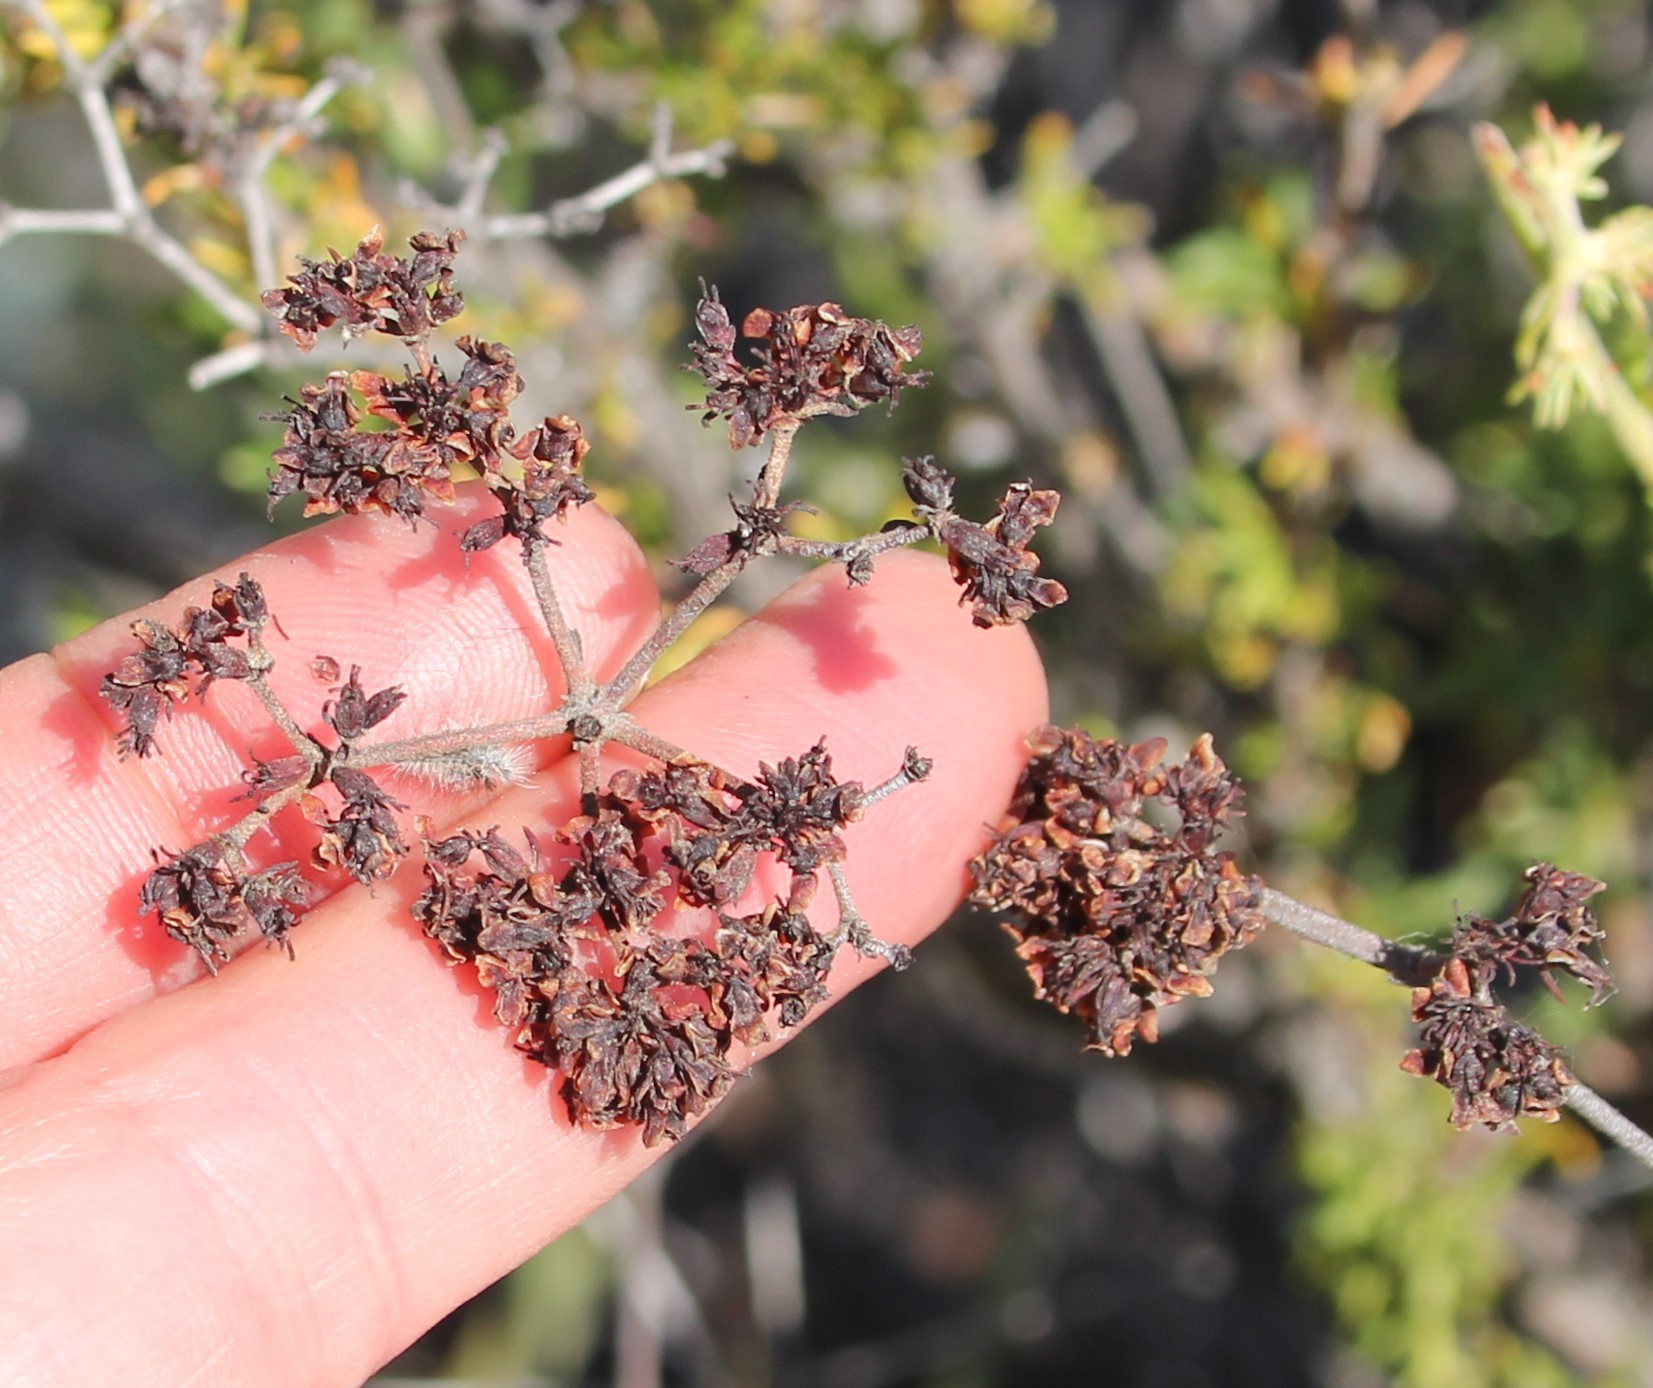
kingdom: Plantae
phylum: Tracheophyta
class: Magnoliopsida
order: Caryophyllales
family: Polygonaceae
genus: Eriogonum
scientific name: Eriogonum fasciculatum
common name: California wild buckwheat
